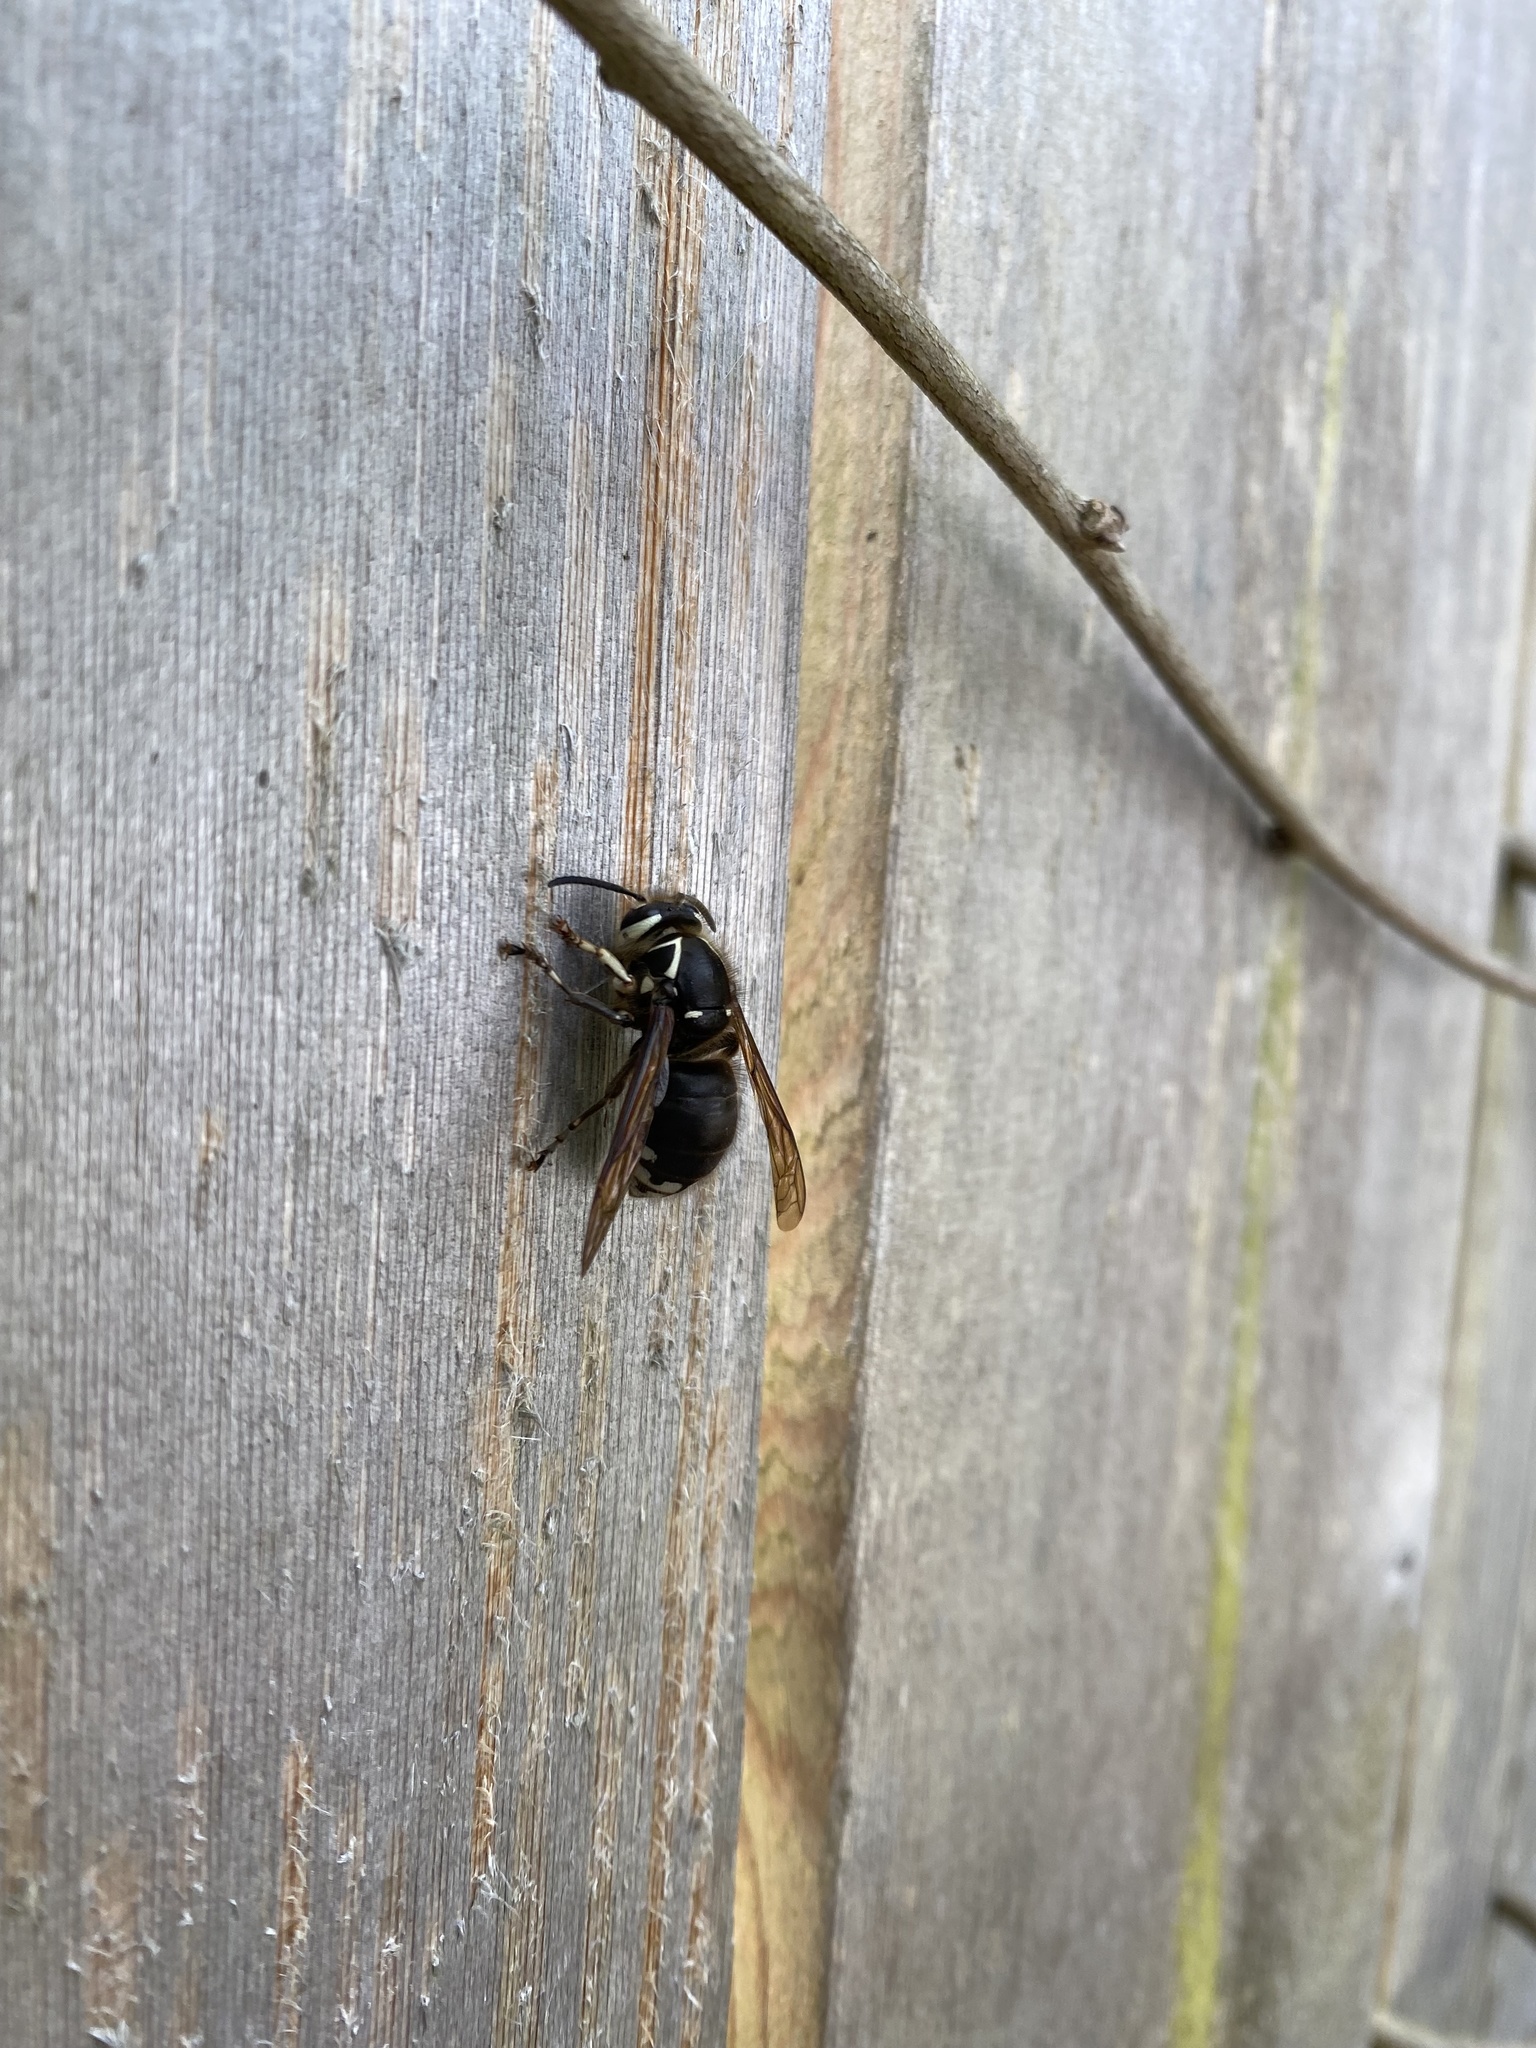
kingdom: Animalia
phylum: Arthropoda
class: Insecta
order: Hymenoptera
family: Vespidae
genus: Dolichovespula
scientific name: Dolichovespula maculata
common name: Bald-faced hornet
